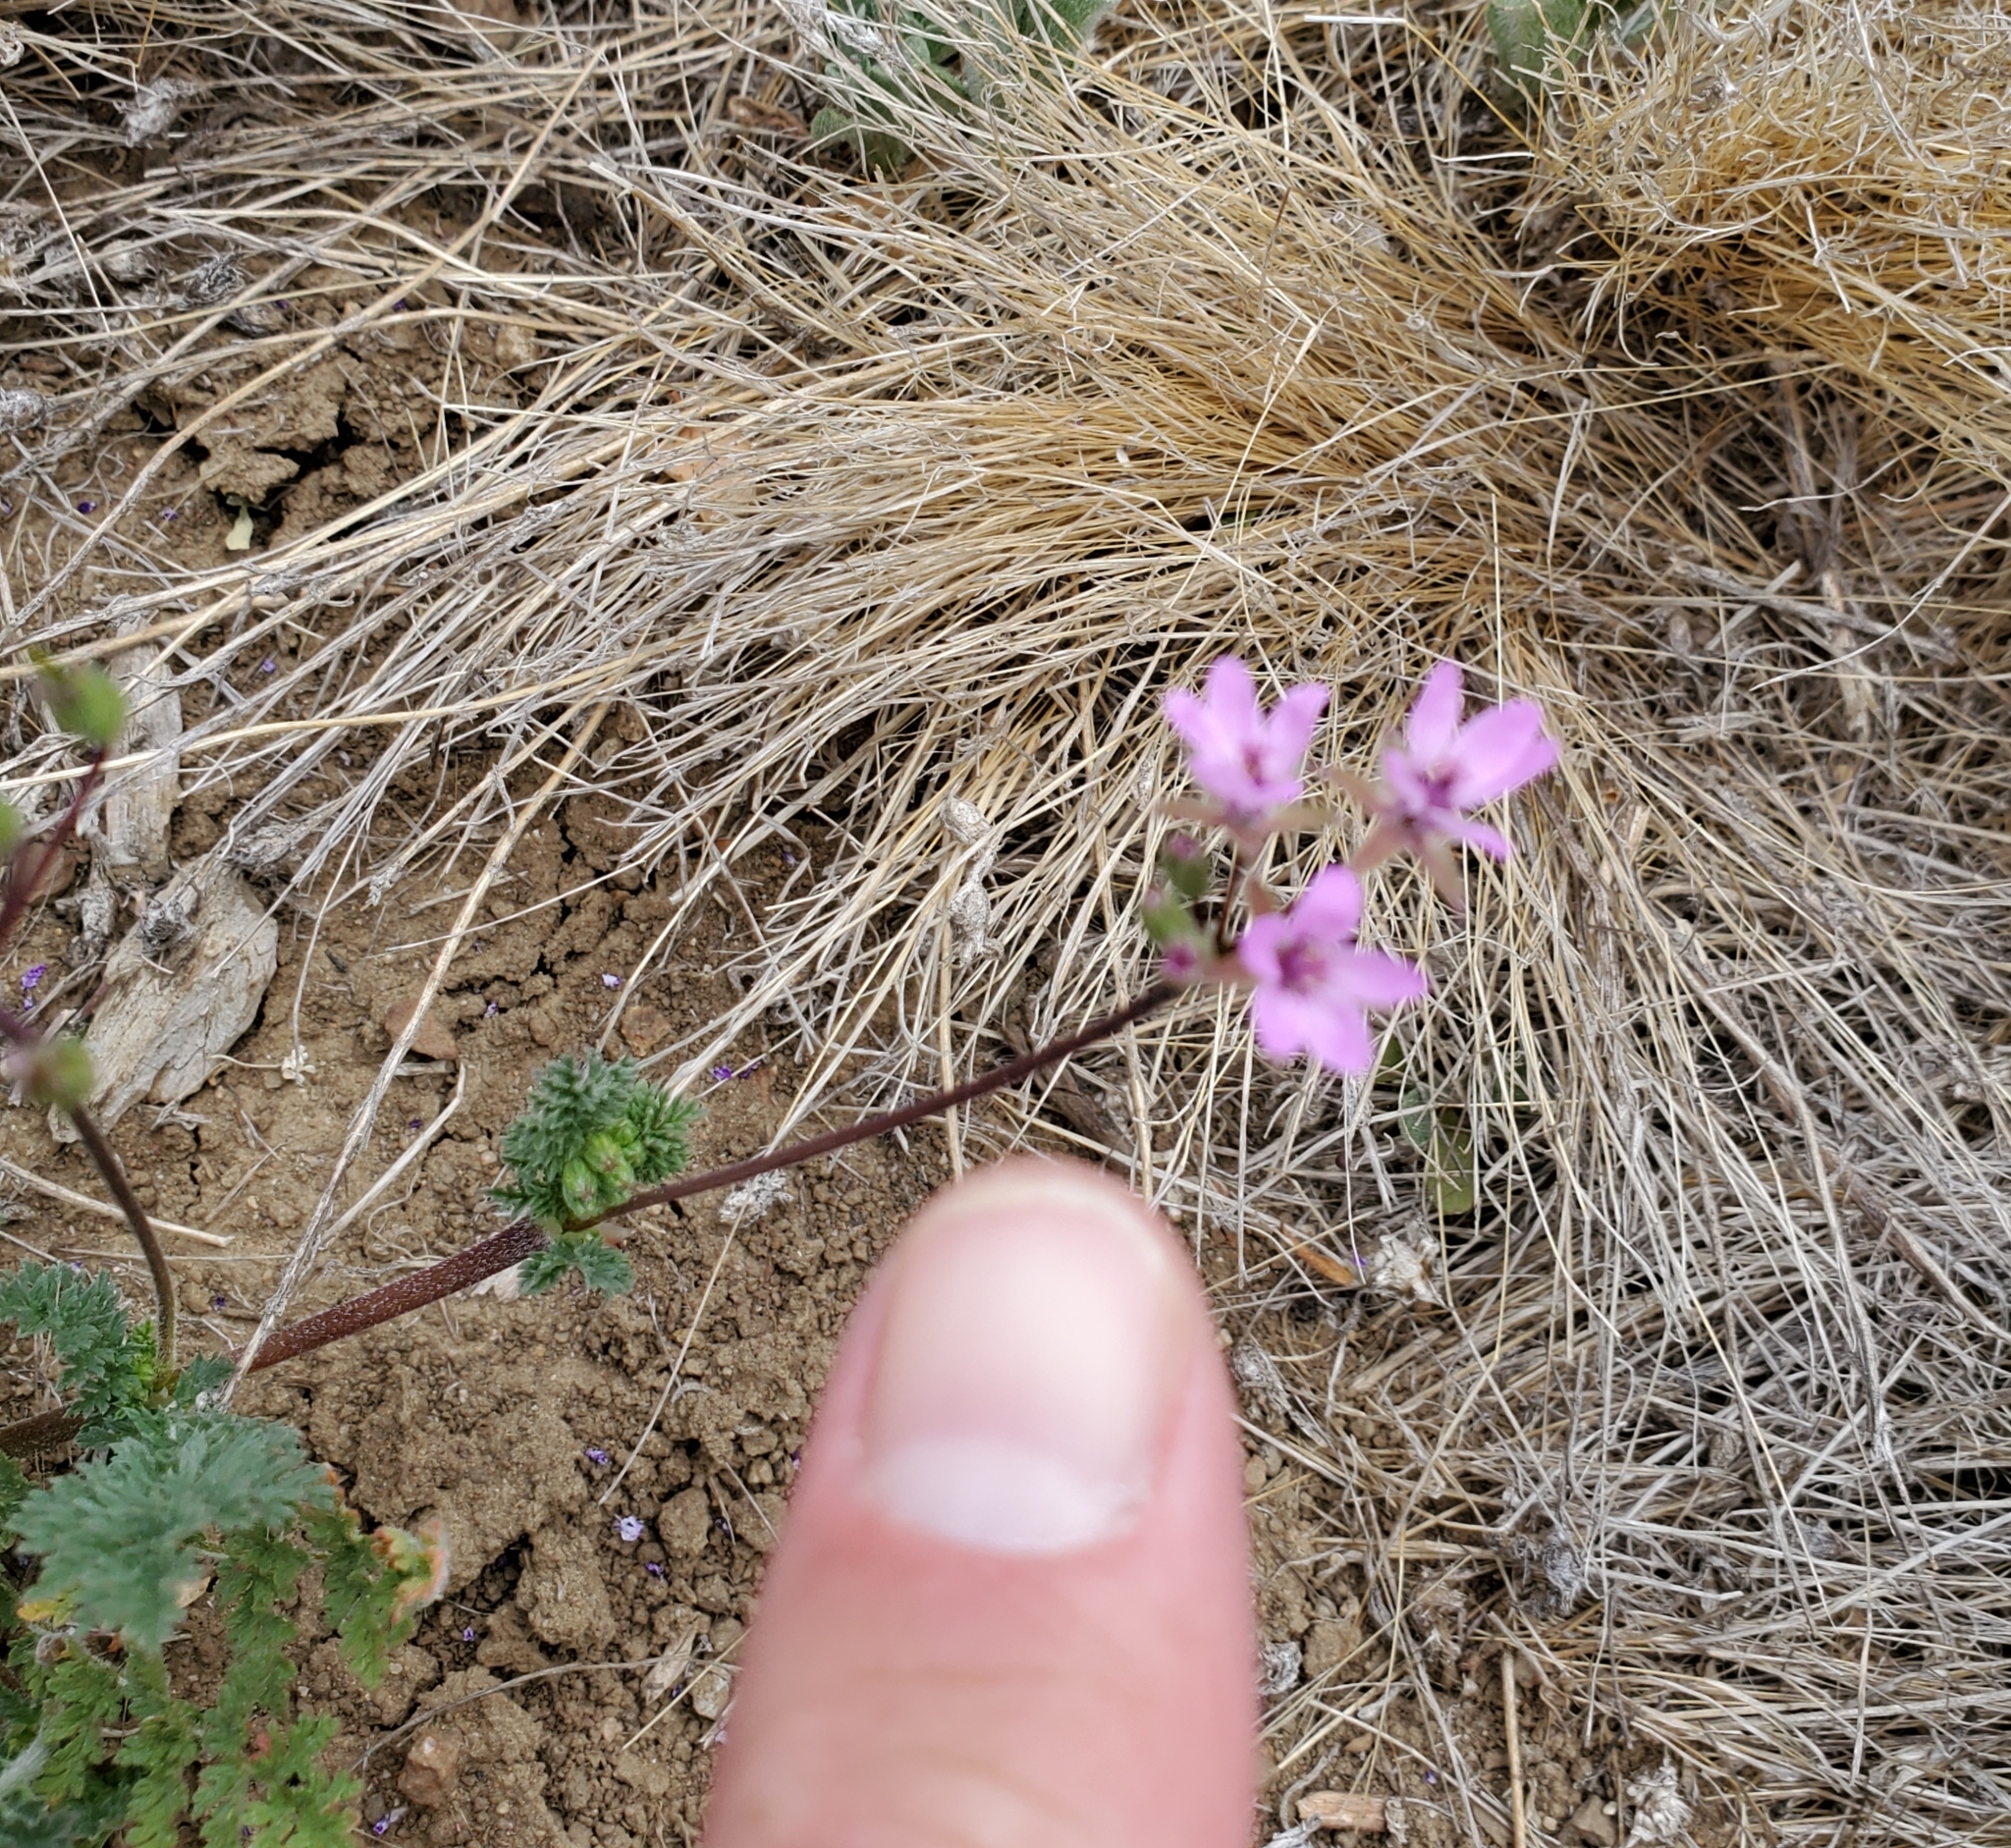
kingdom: Plantae
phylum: Tracheophyta
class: Magnoliopsida
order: Geraniales
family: Geraniaceae
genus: Erodium
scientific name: Erodium cicutarium
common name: Common stork's-bill
